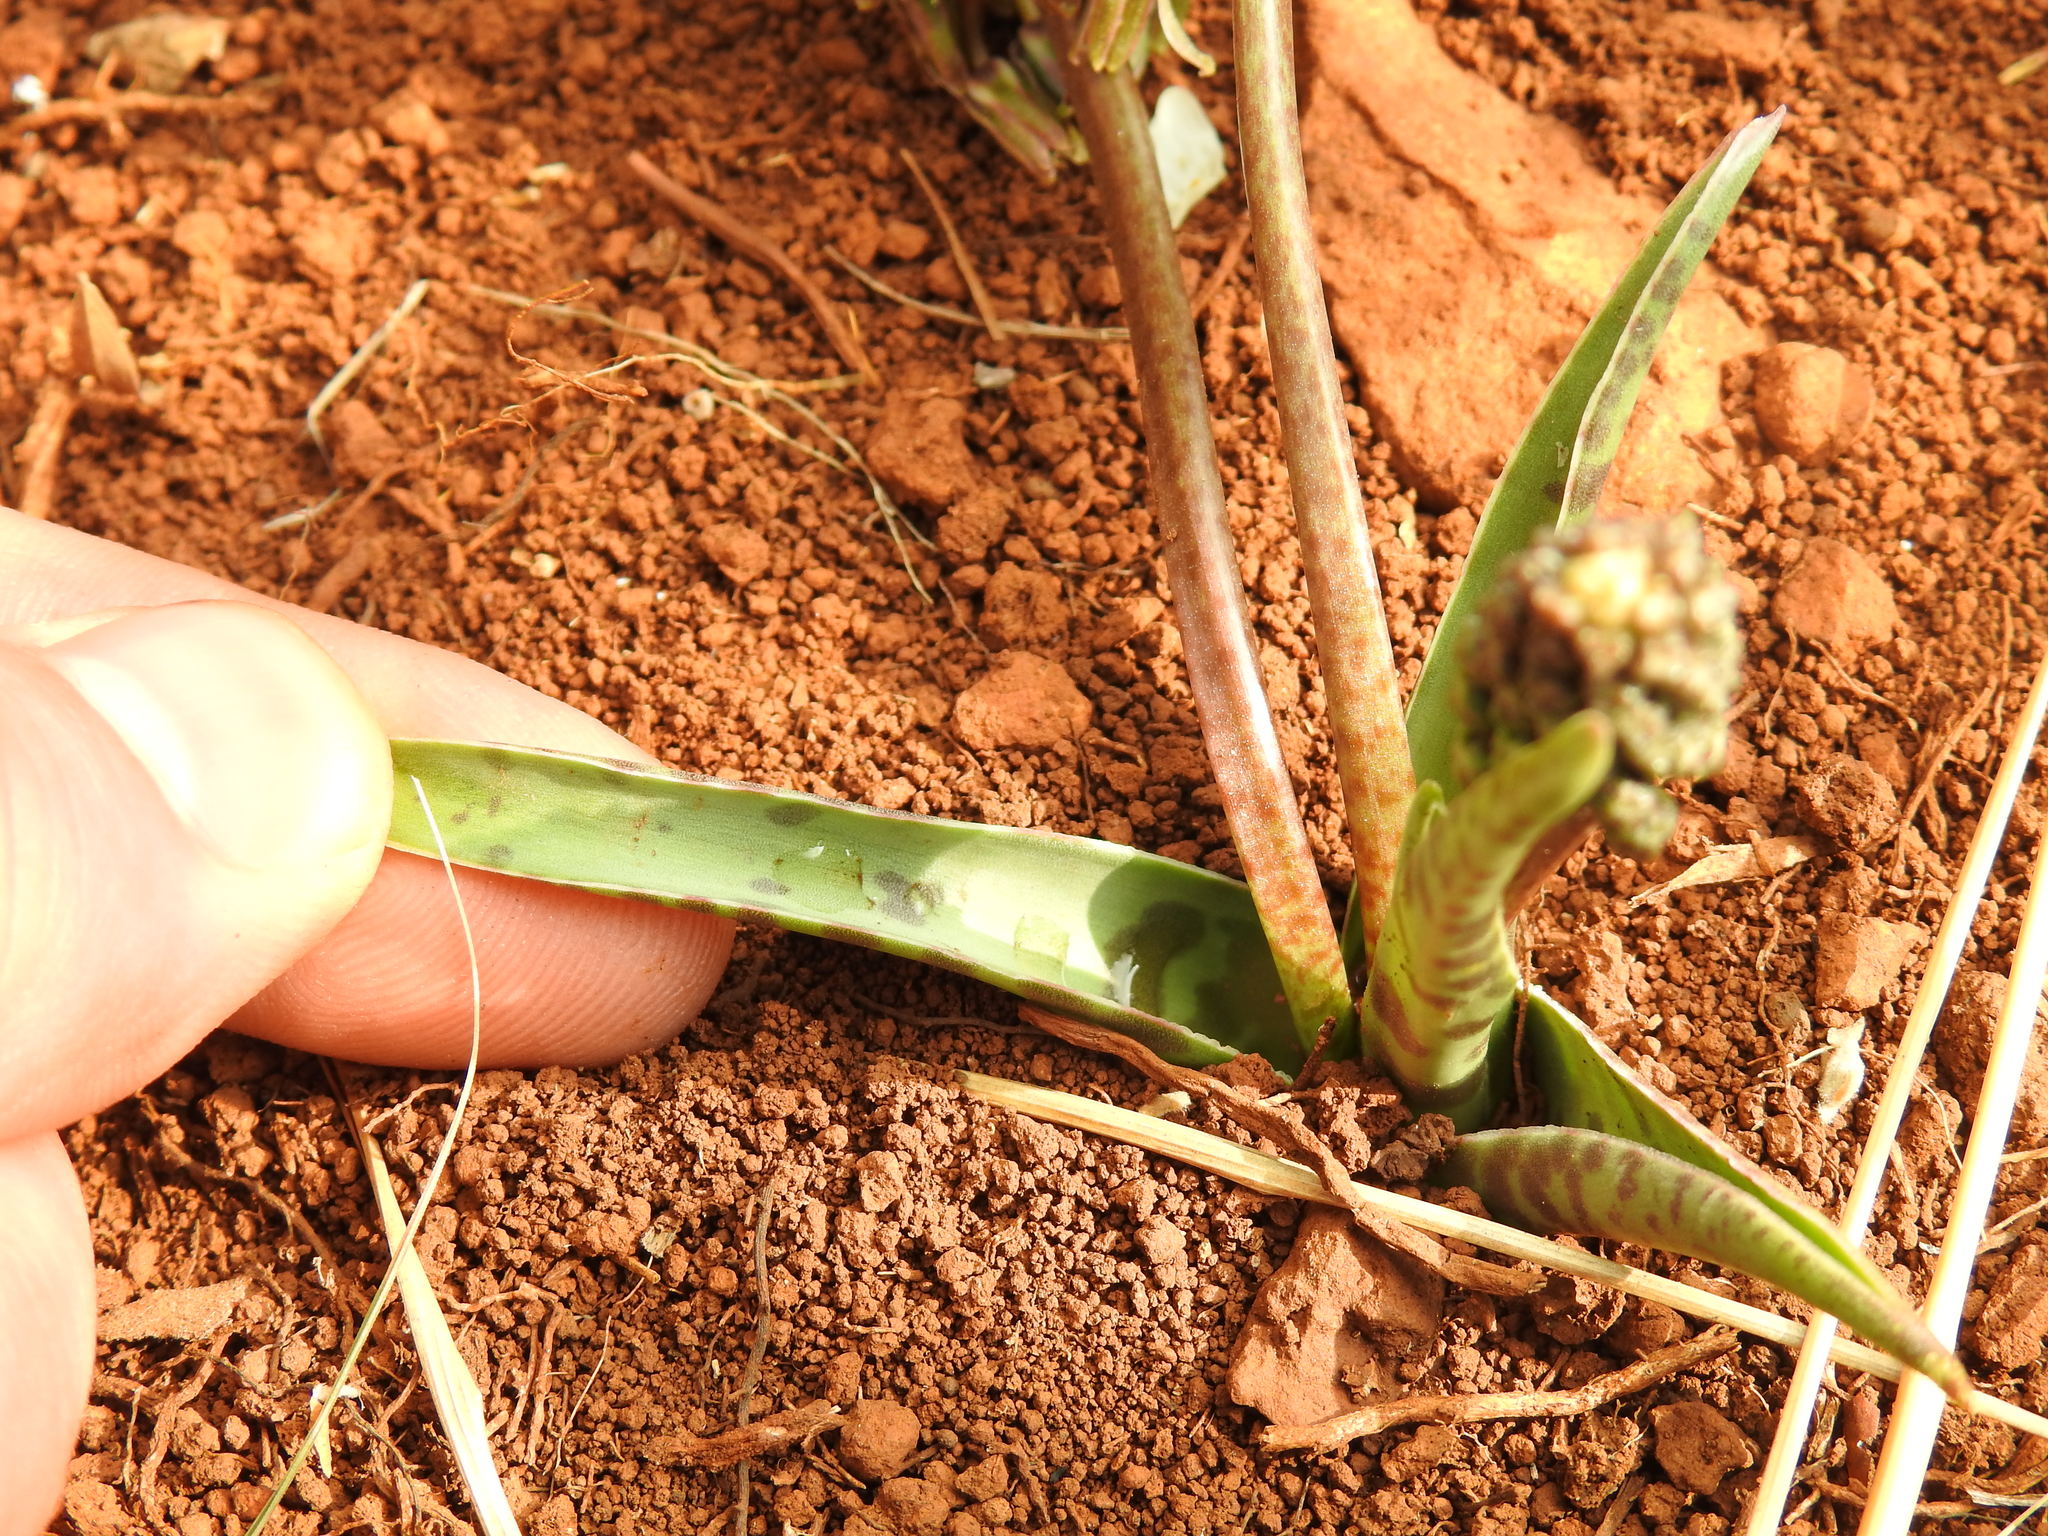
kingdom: Plantae
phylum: Tracheophyta
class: Liliopsida
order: Asparagales
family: Asparagaceae
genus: Ledebouria
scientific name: Ledebouria luteola
